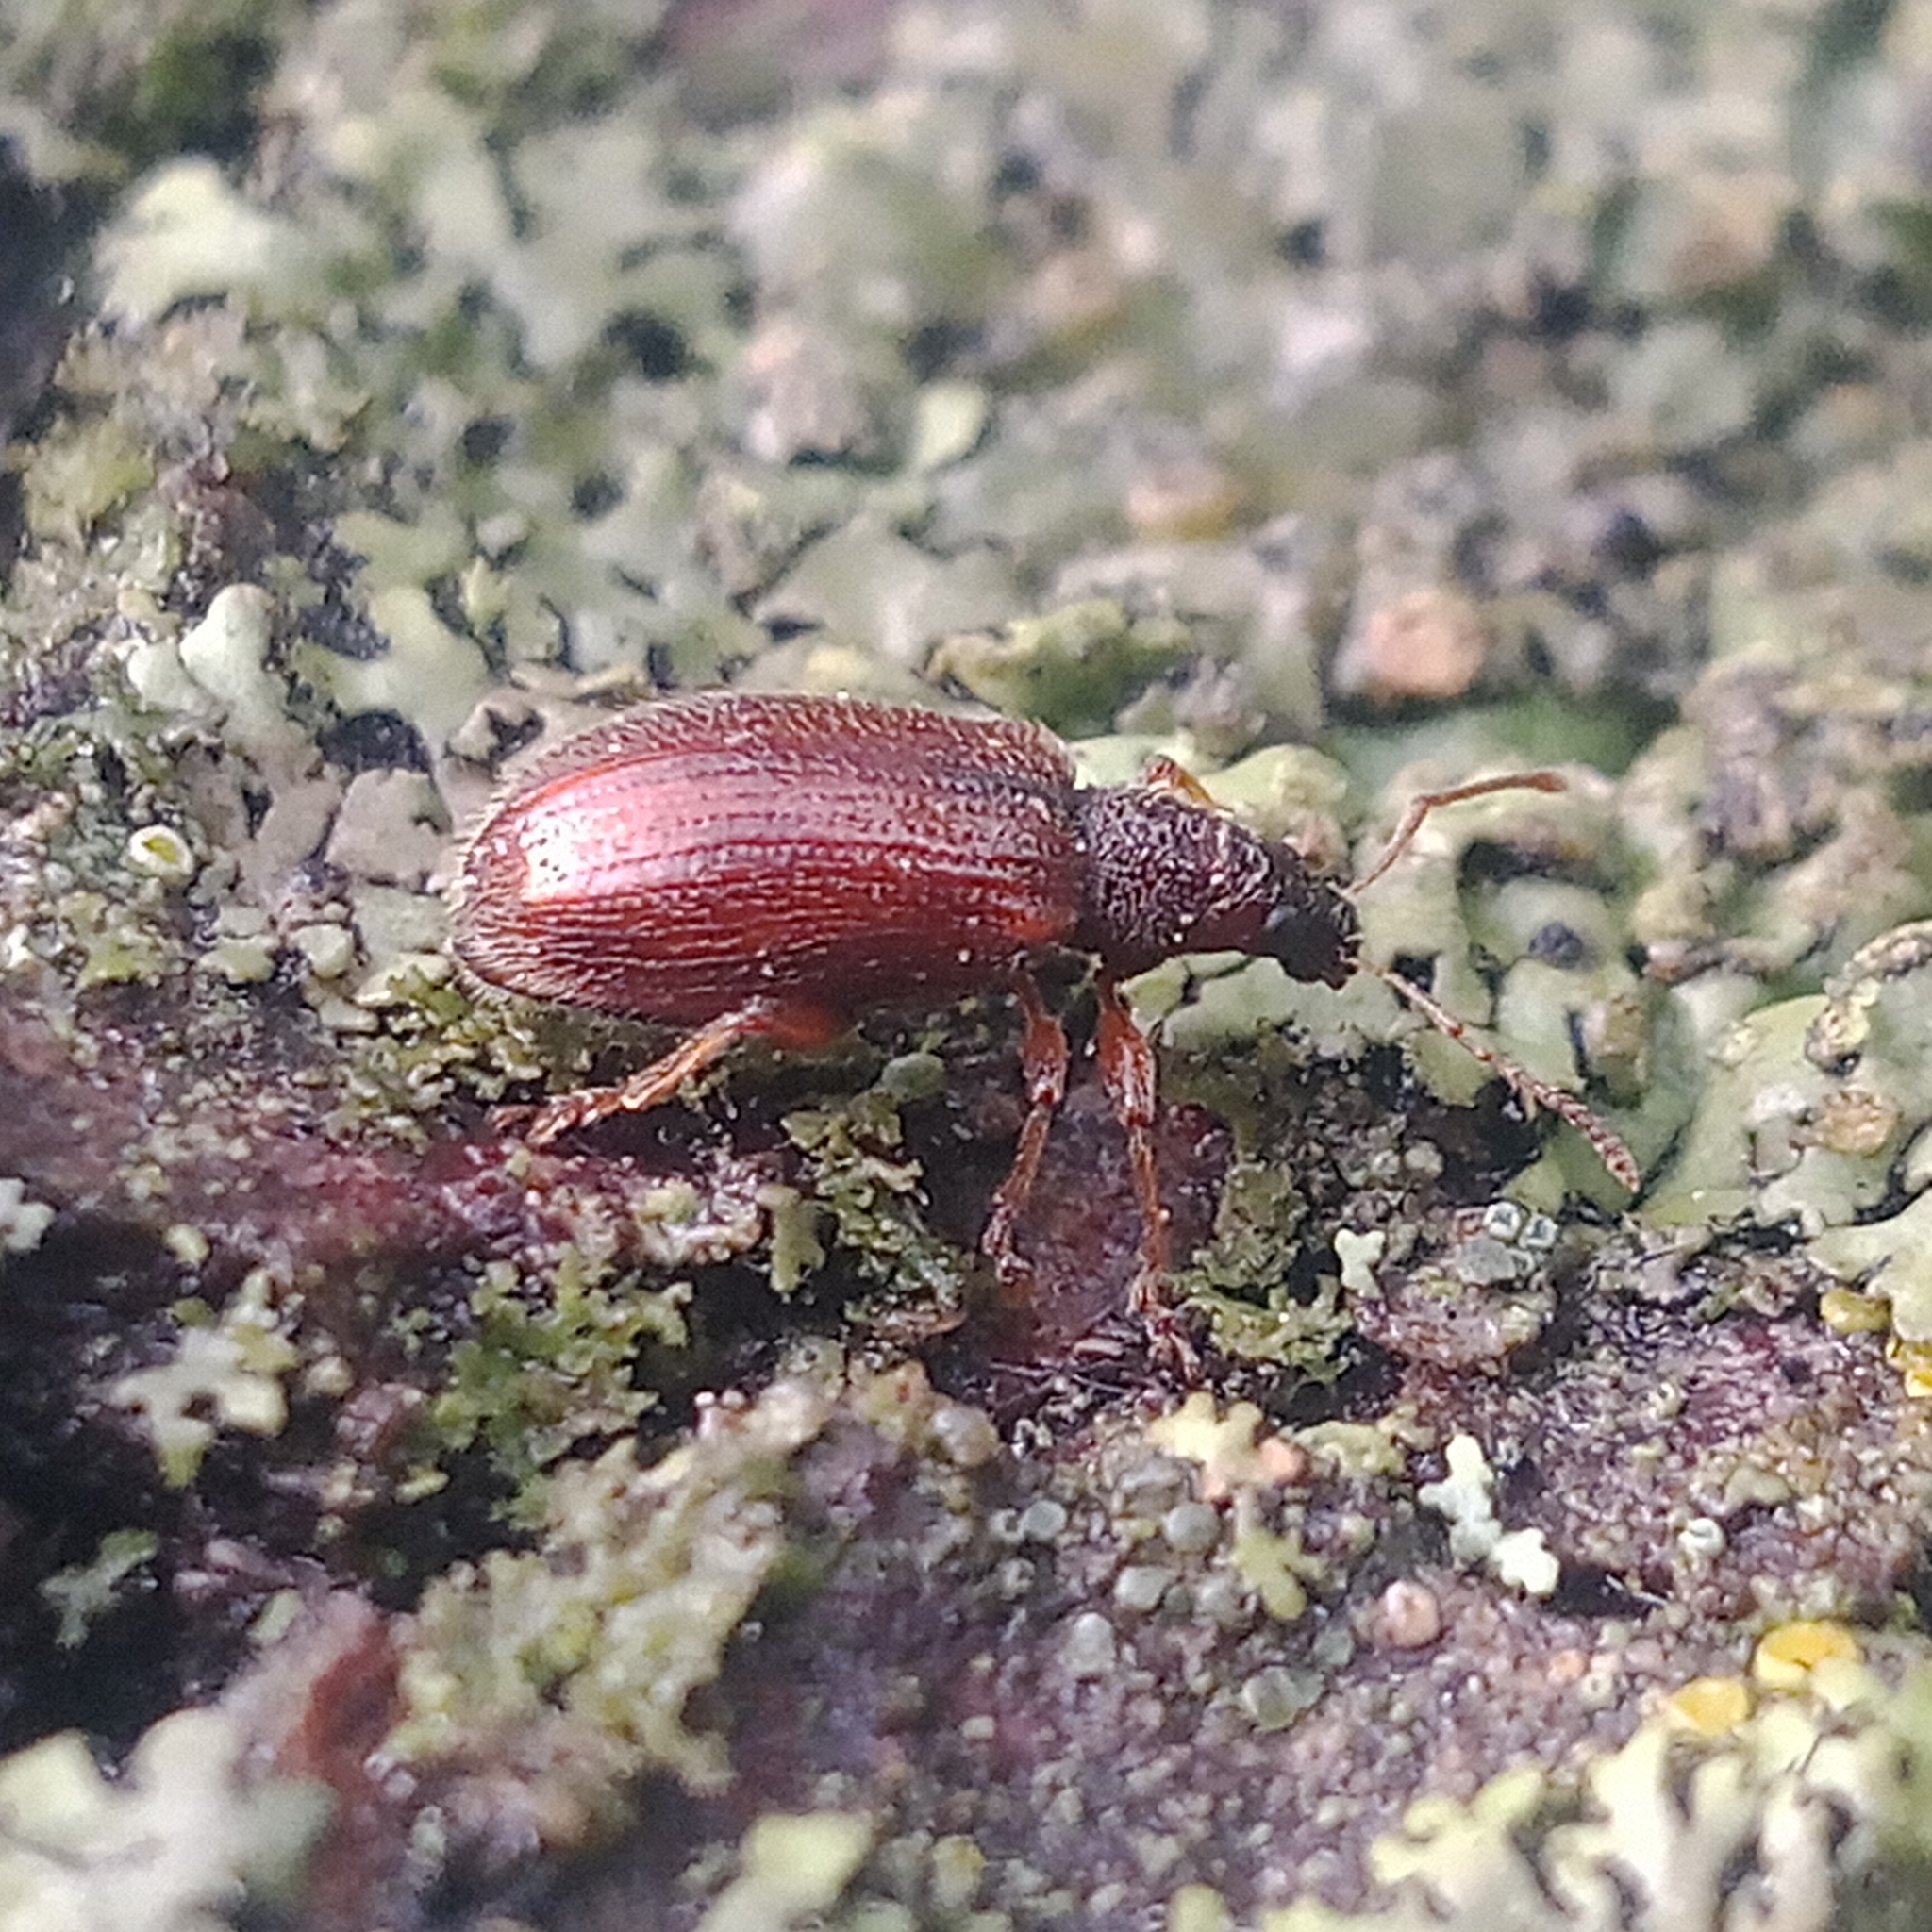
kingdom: Animalia
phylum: Arthropoda
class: Insecta
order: Coleoptera
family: Curculionidae
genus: Phyllobius
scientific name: Phyllobius oblongus
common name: Brown leaf weevil
